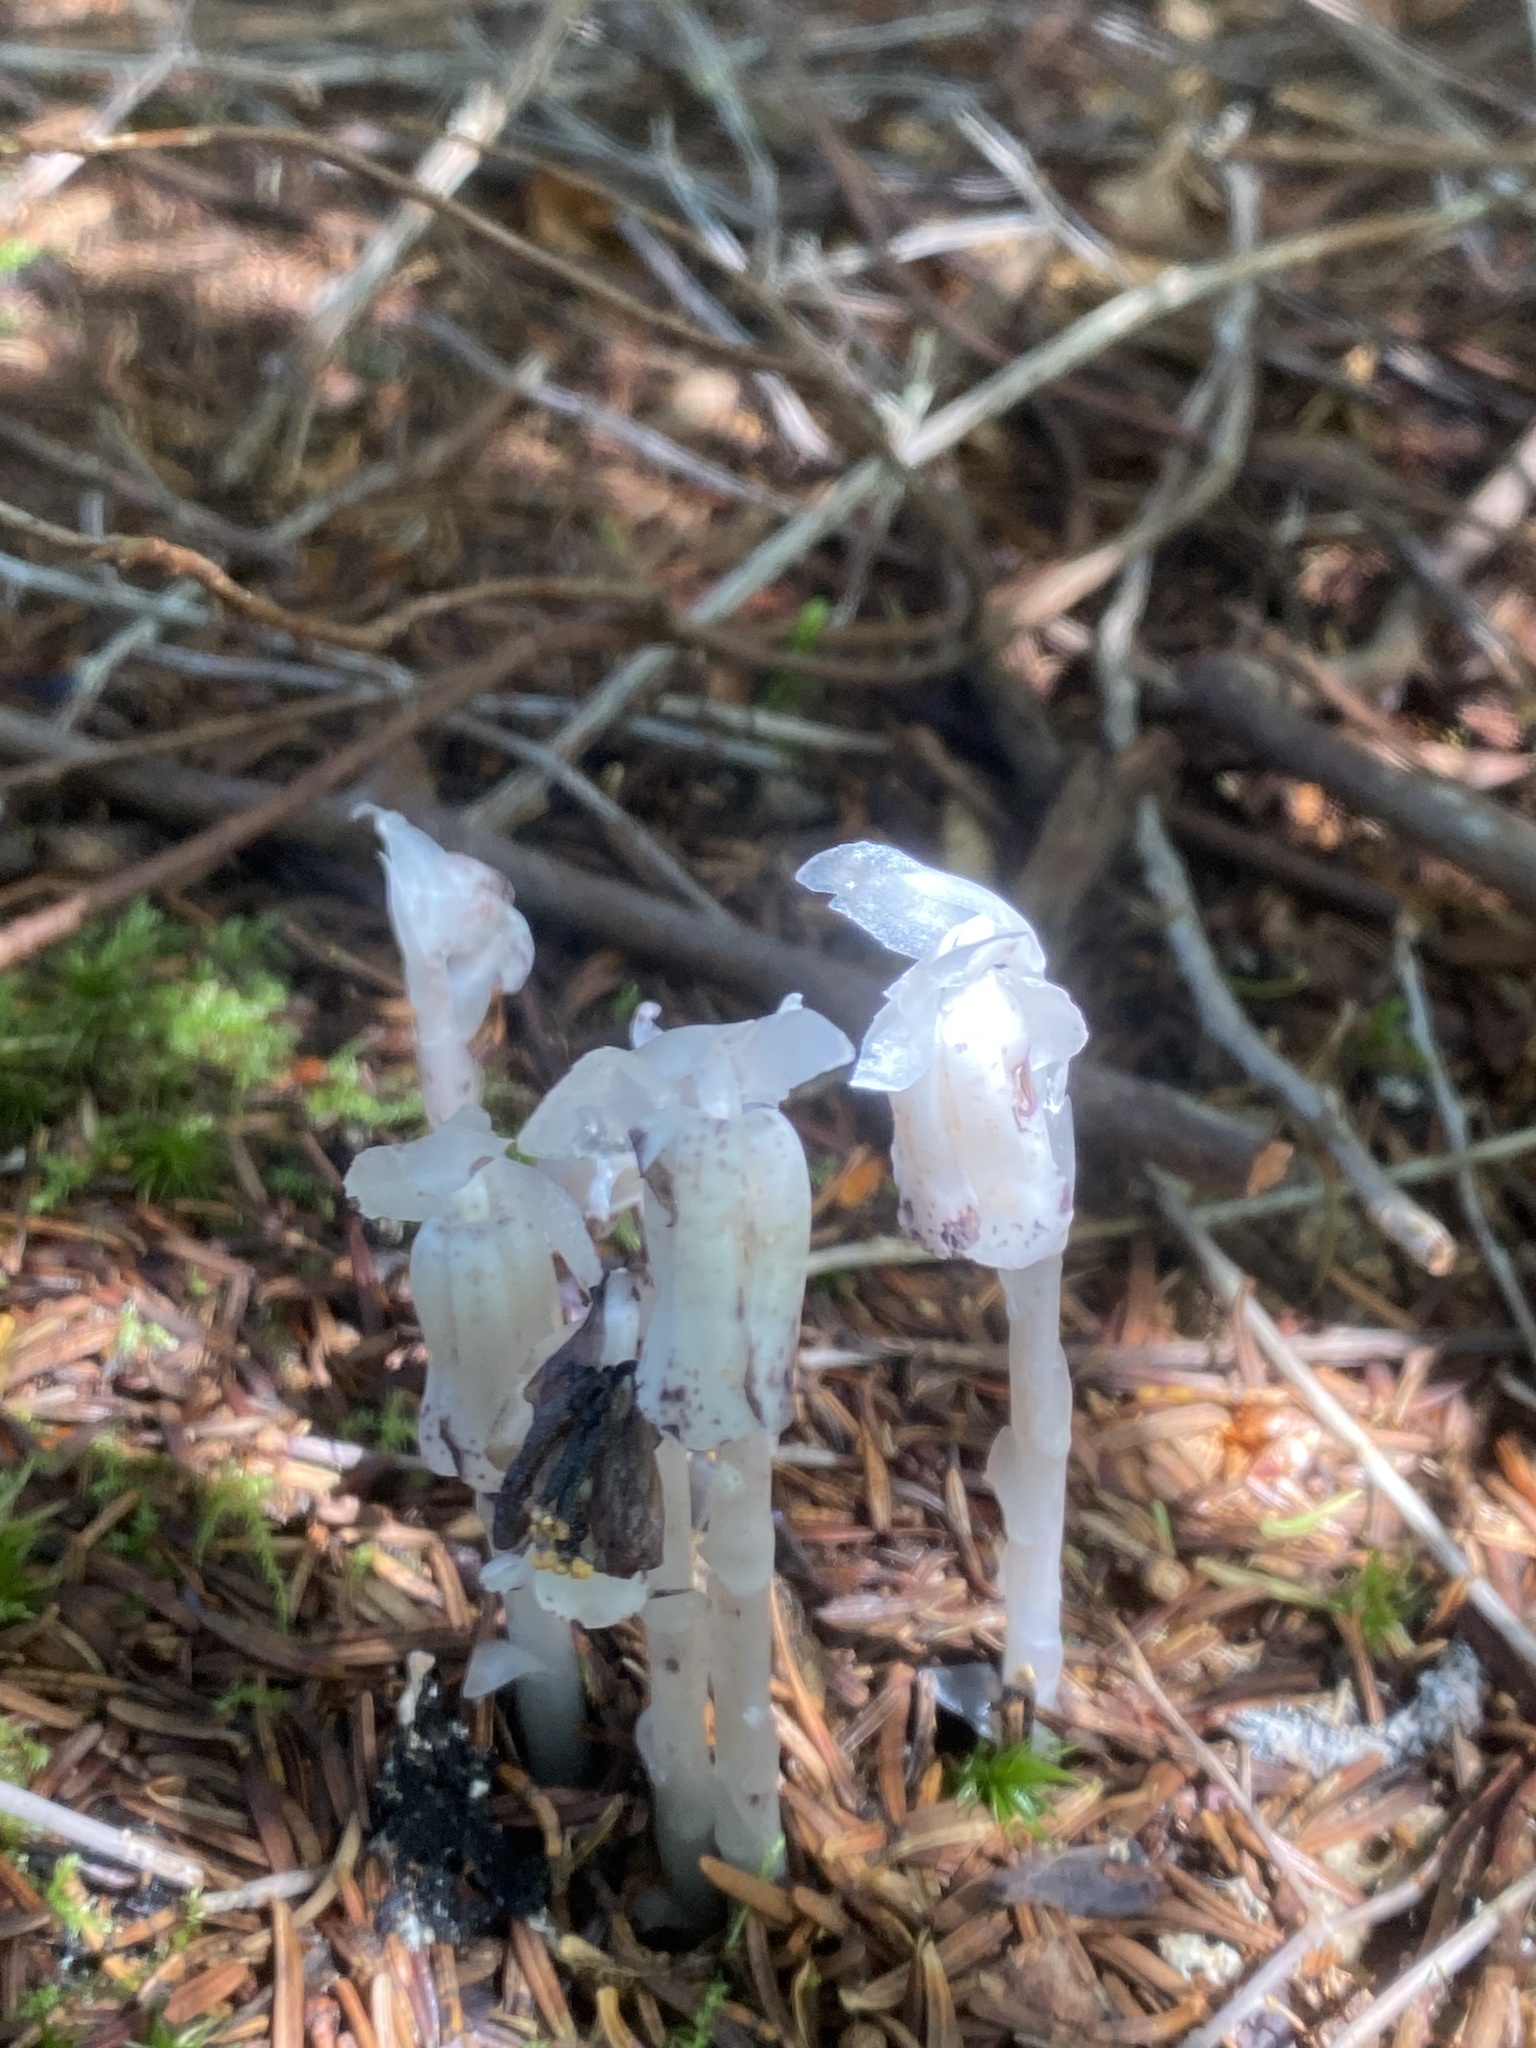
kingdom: Plantae
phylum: Tracheophyta
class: Magnoliopsida
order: Ericales
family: Ericaceae
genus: Monotropa
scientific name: Monotropa uniflora
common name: Convulsion root
